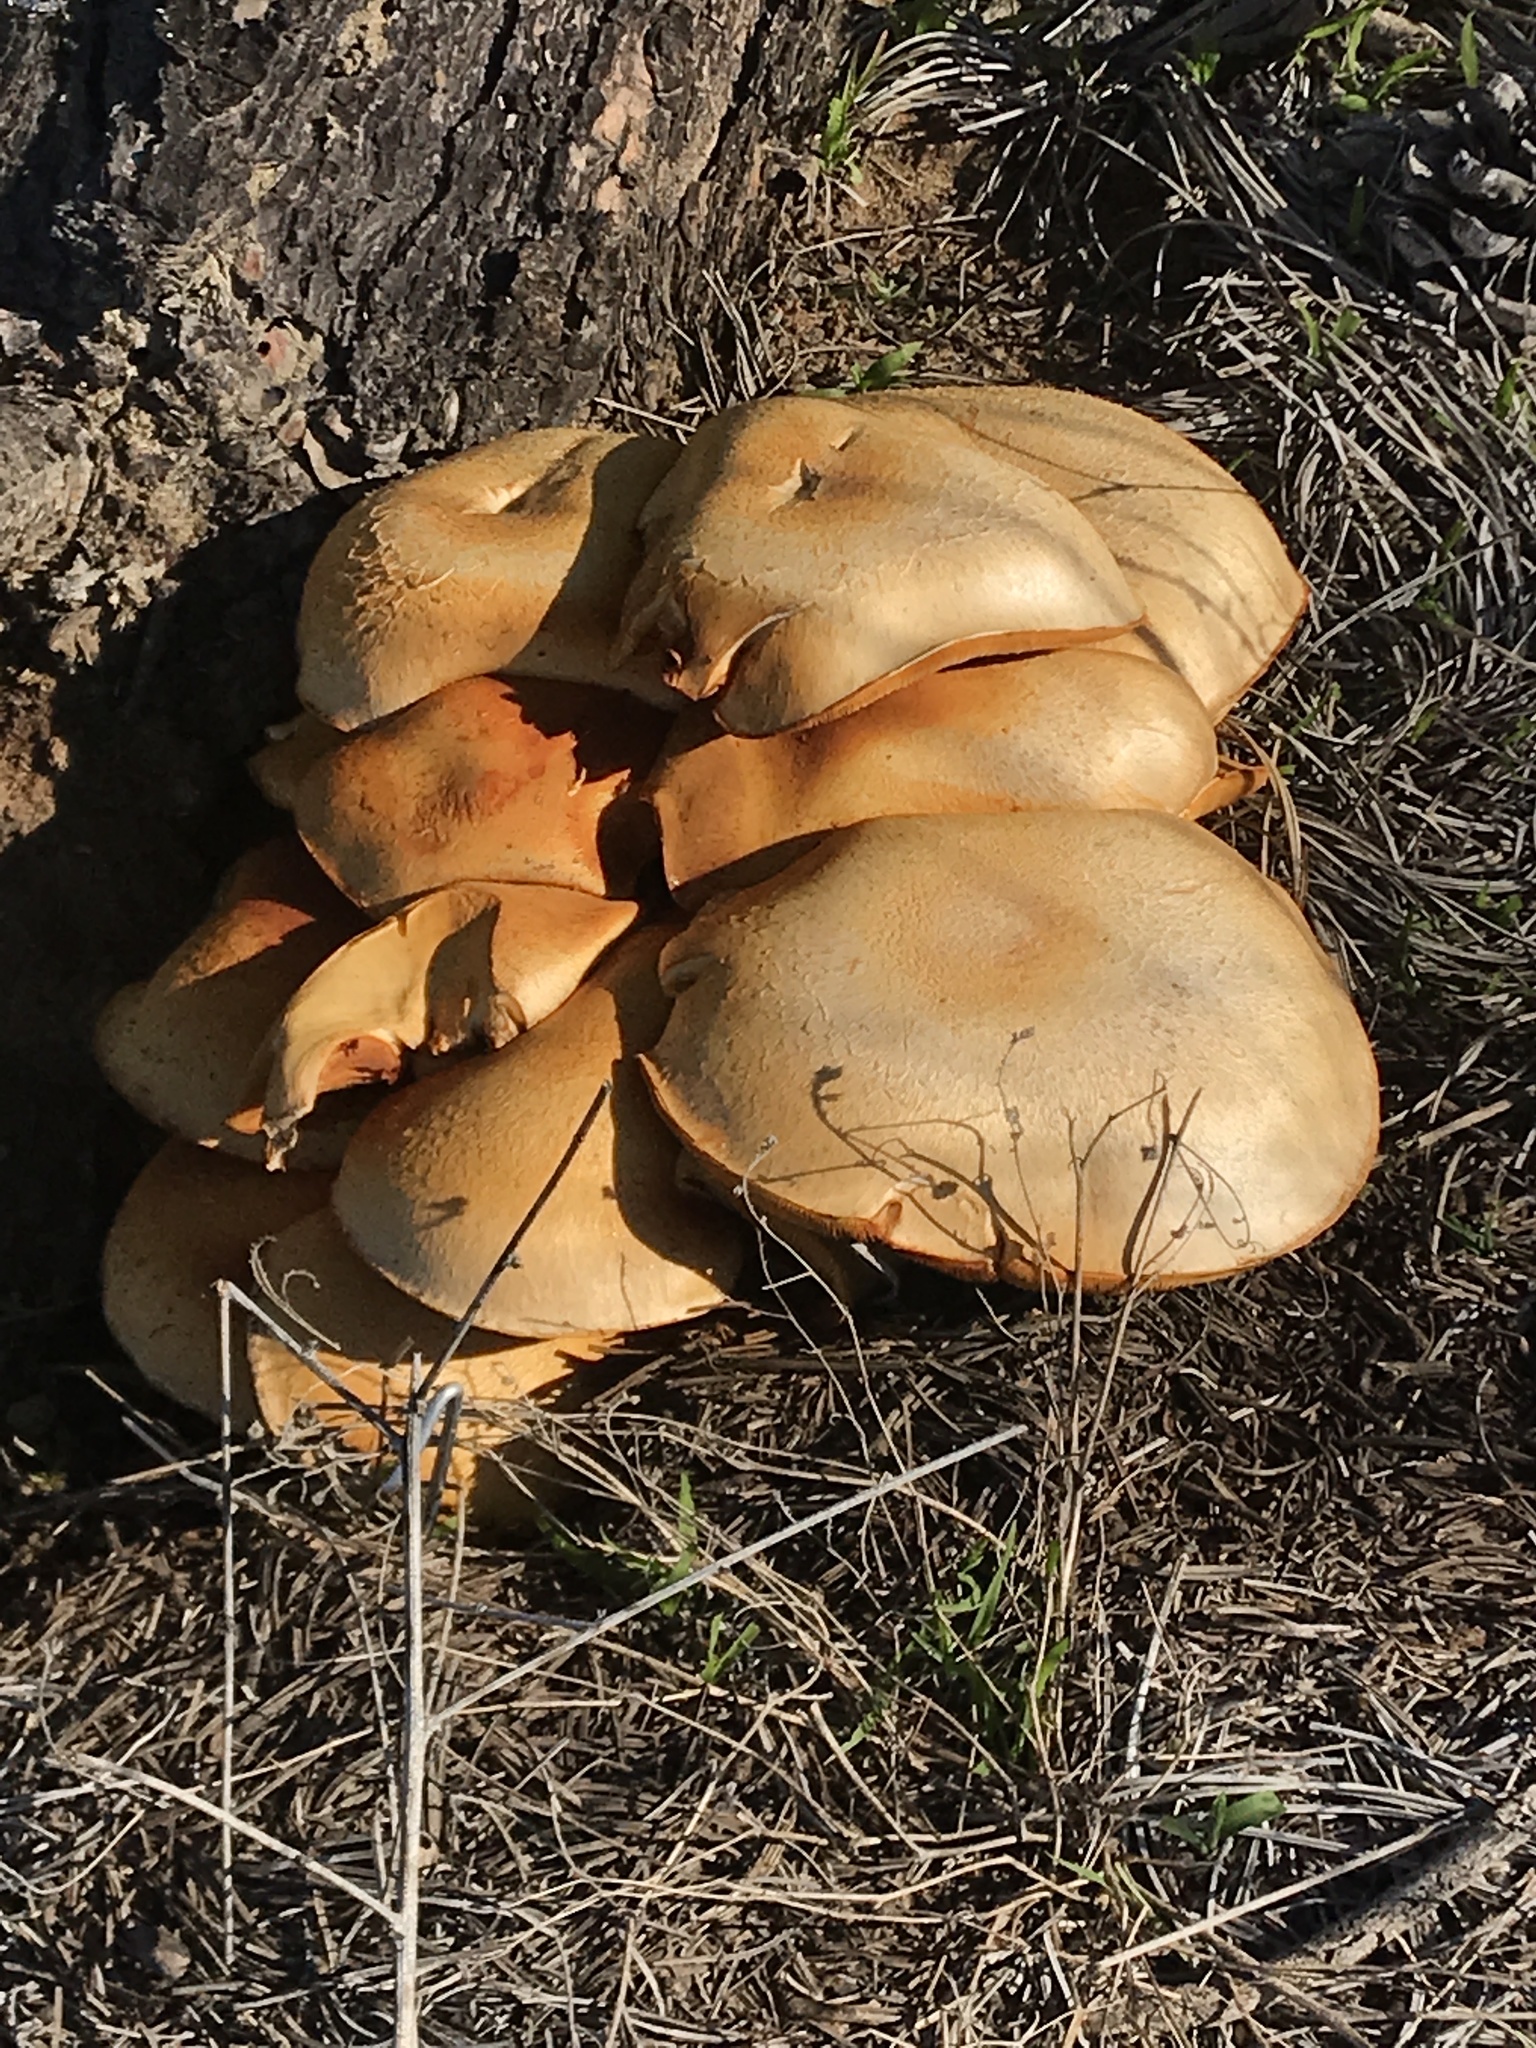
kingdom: Fungi
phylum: Basidiomycota
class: Agaricomycetes
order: Agaricales
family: Hymenogastraceae
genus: Gymnopilus
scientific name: Gymnopilus ventricosus
